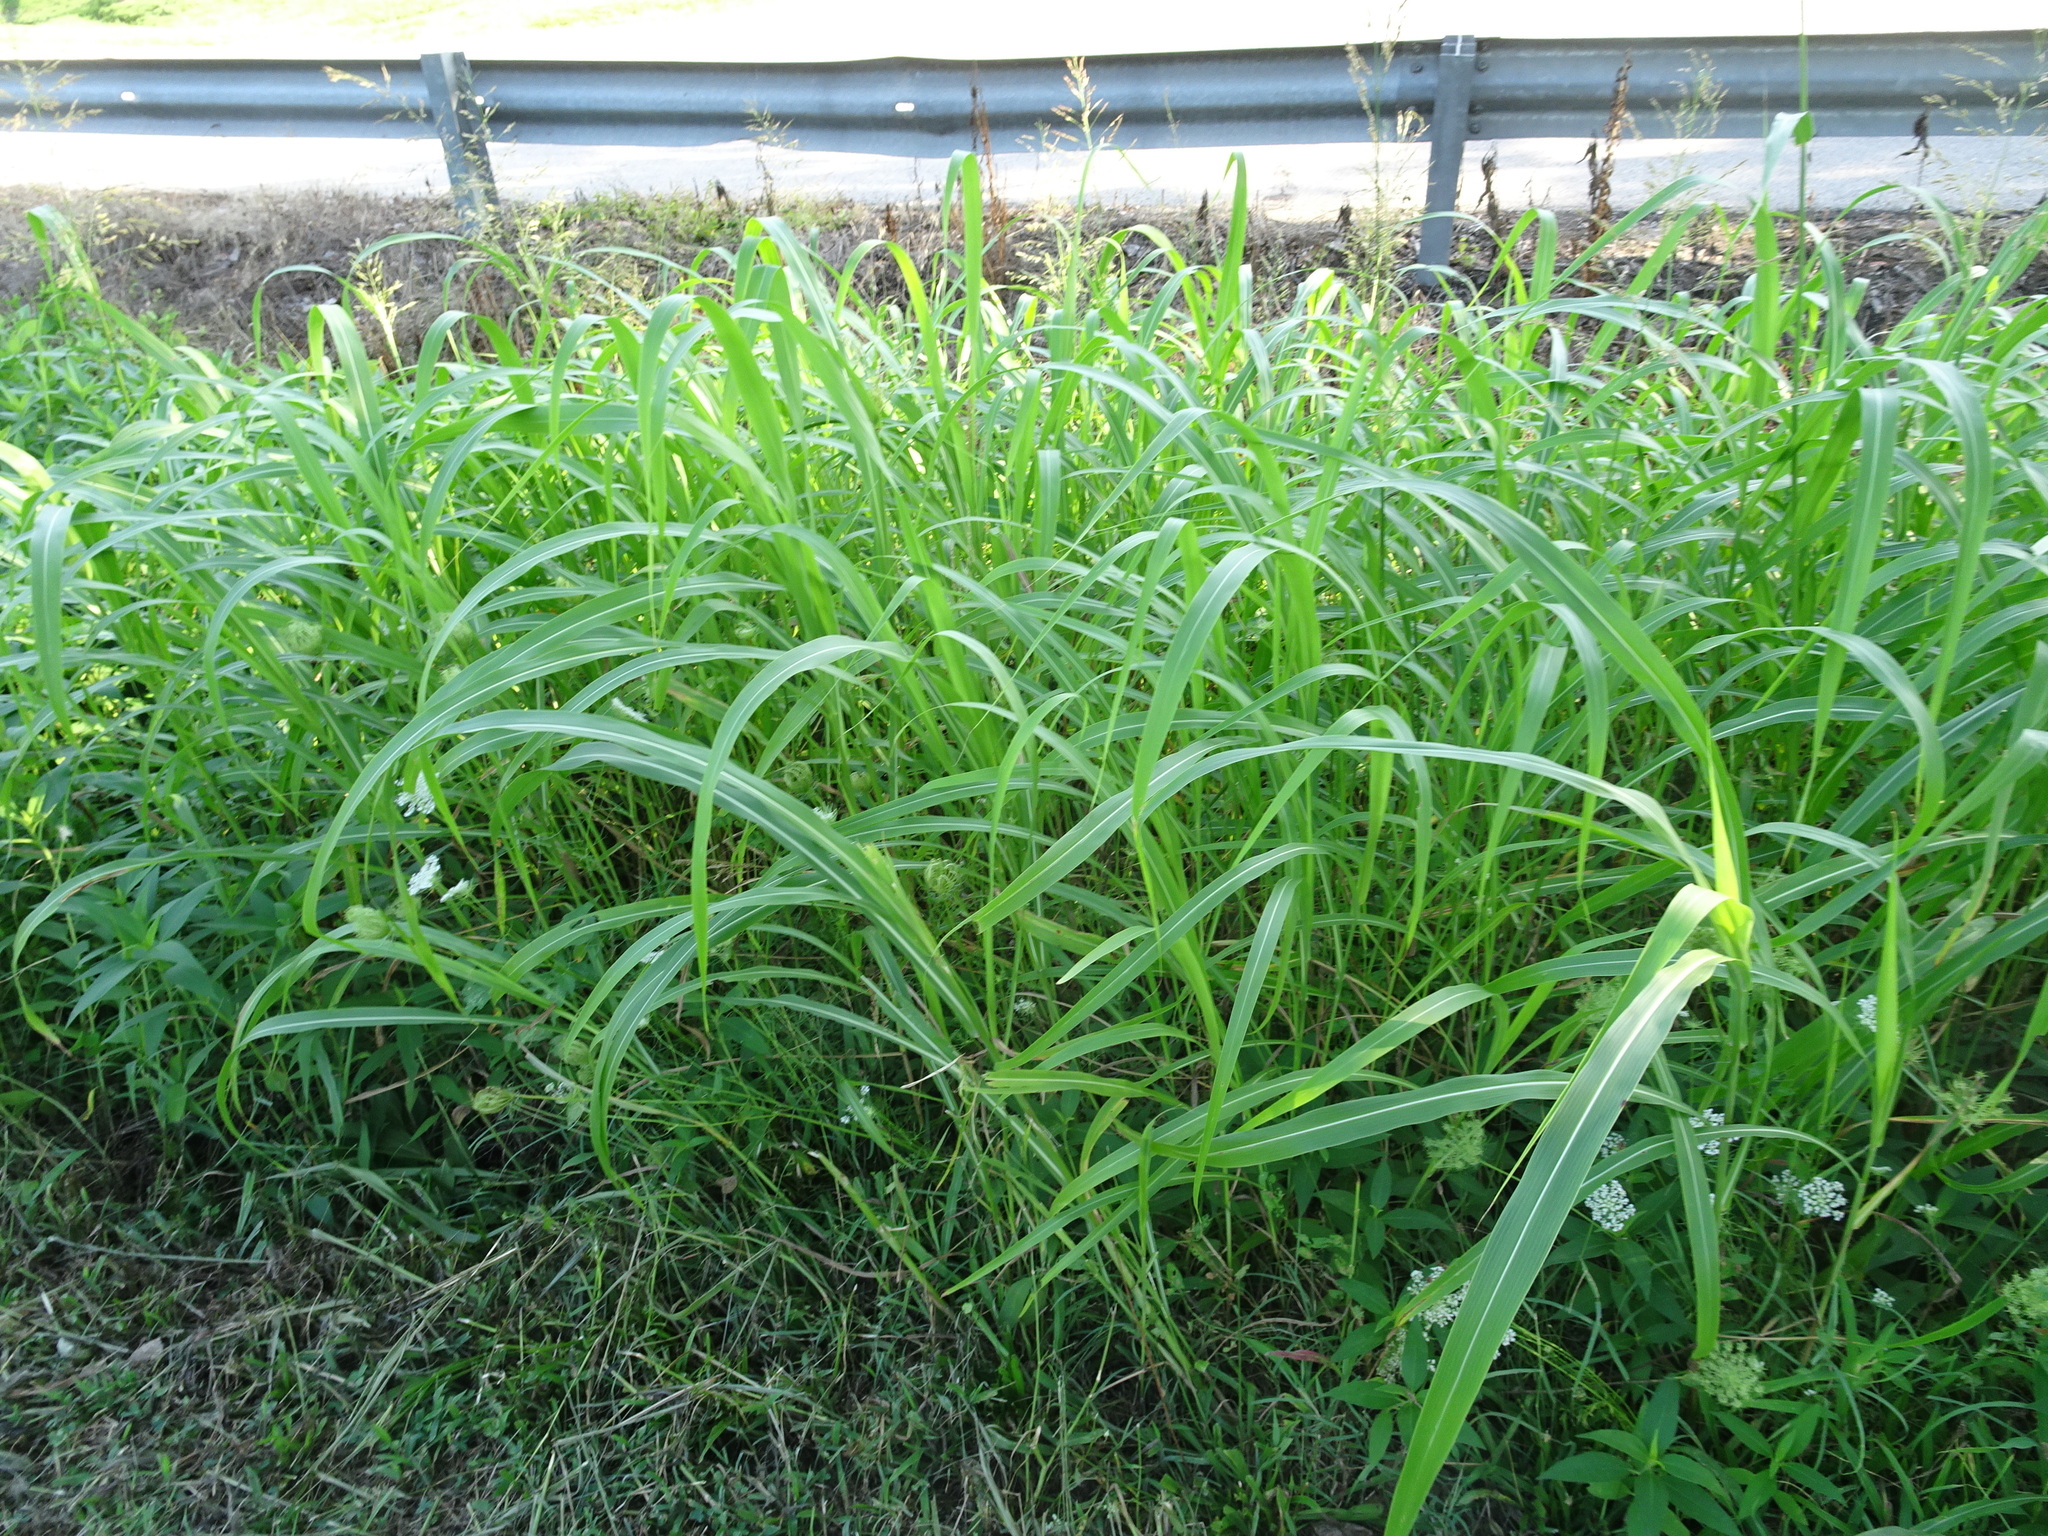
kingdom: Plantae
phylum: Tracheophyta
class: Liliopsida
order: Poales
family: Poaceae
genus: Sorghum
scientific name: Sorghum halepense
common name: Johnson-grass
